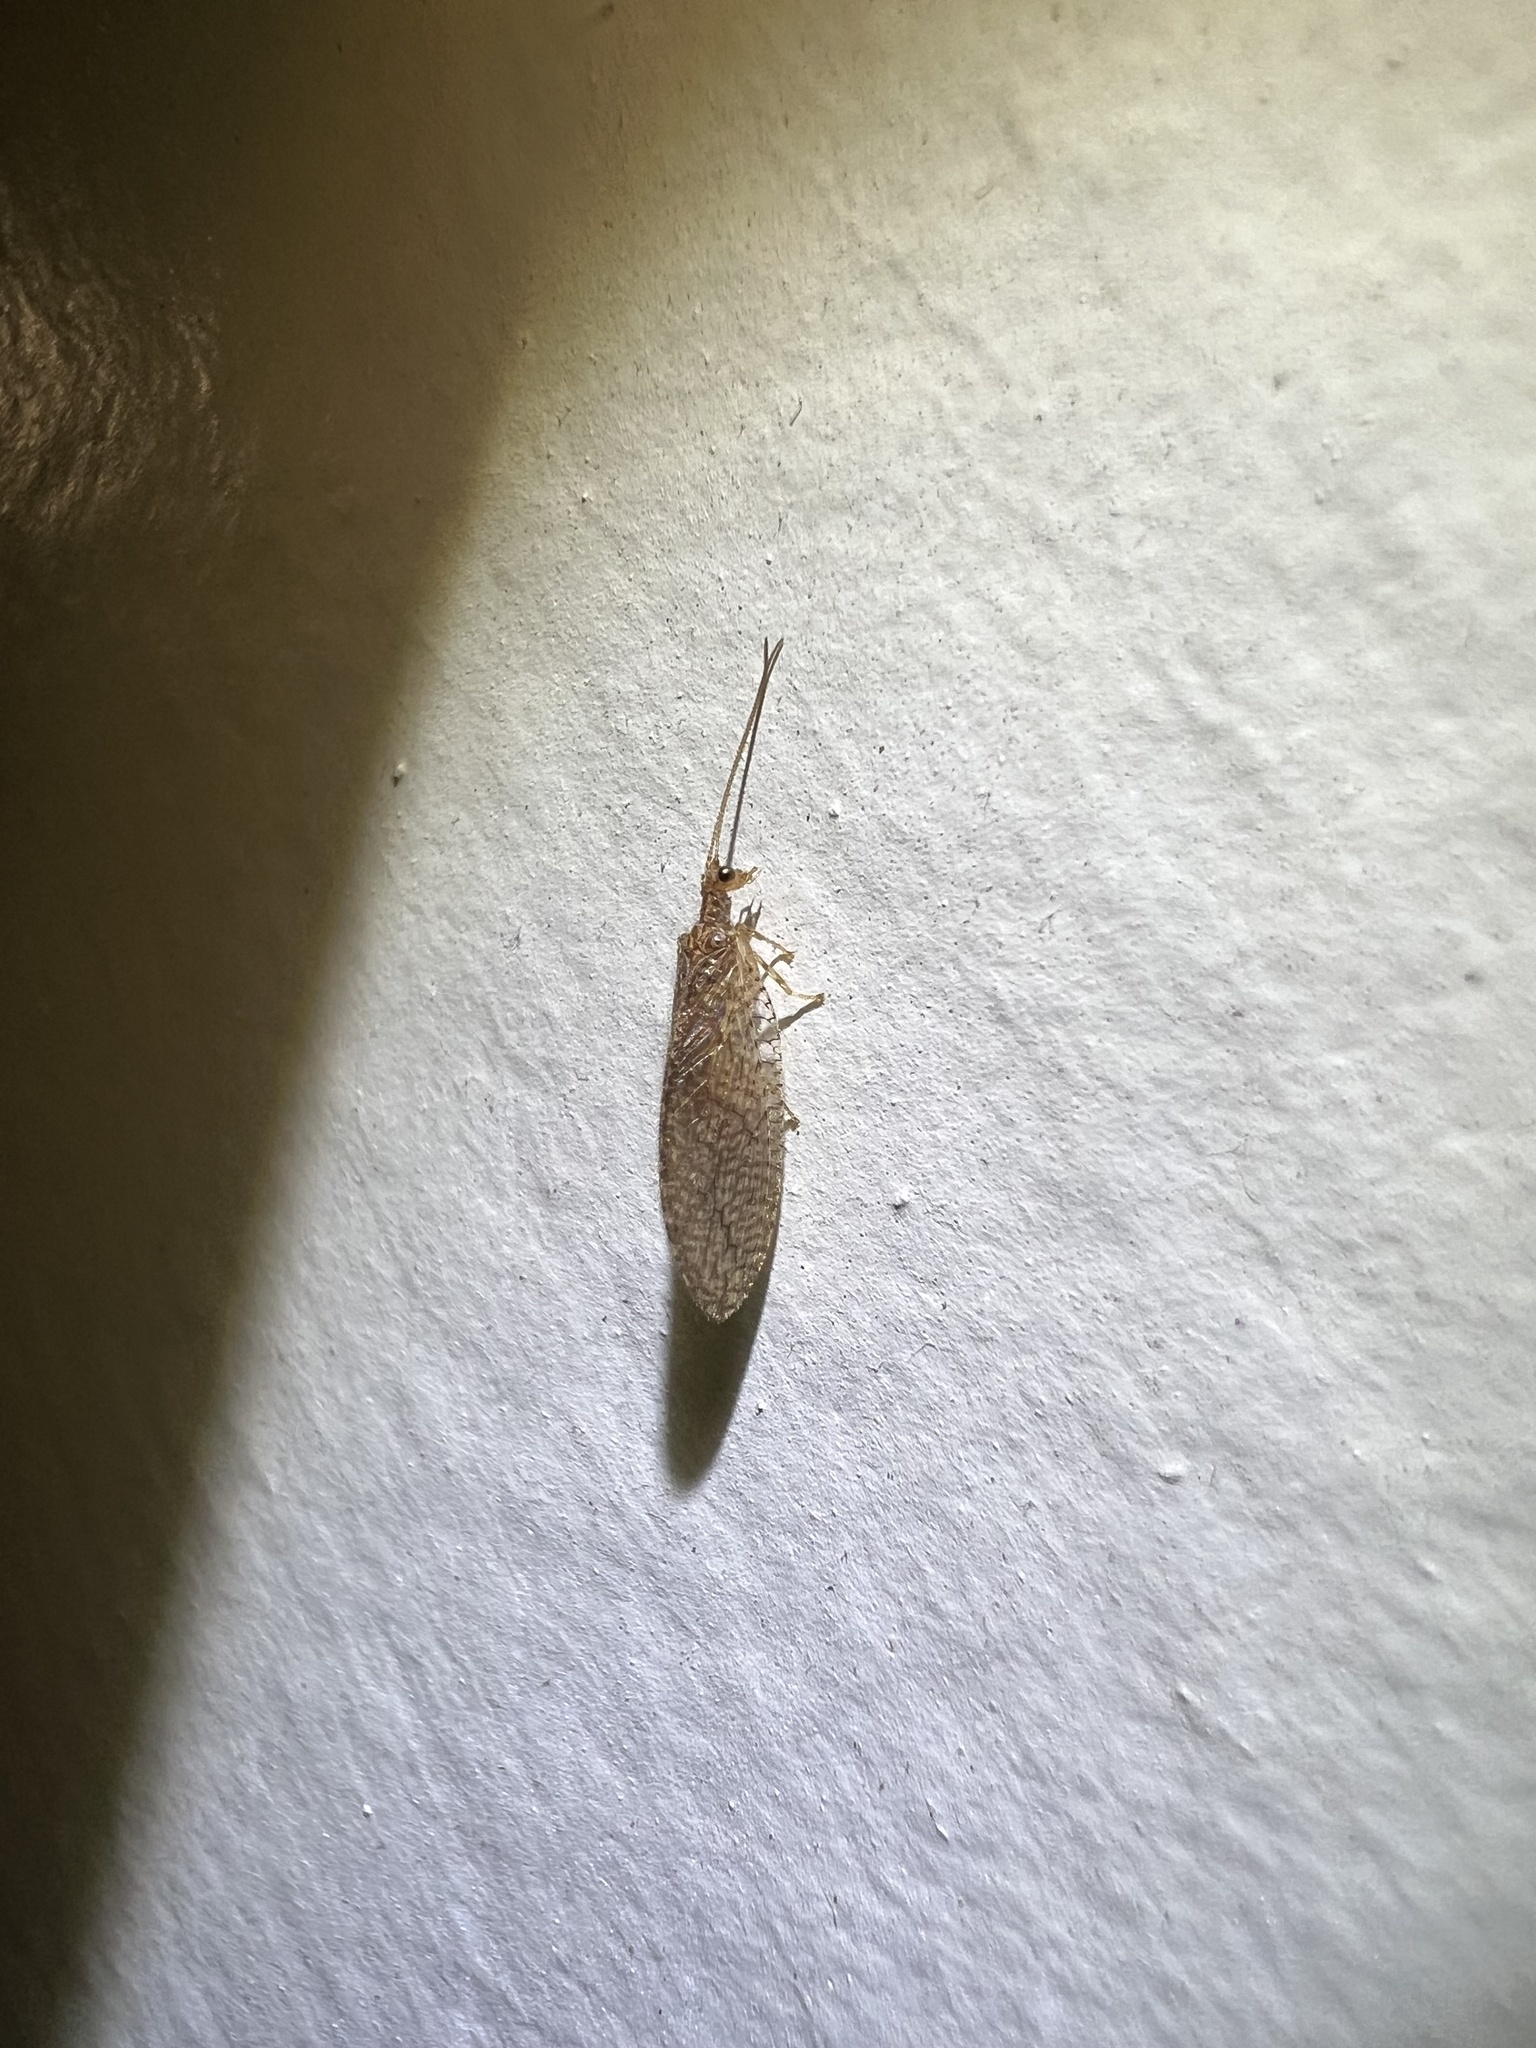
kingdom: Animalia
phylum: Arthropoda
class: Insecta
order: Neuroptera
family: Hemerobiidae
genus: Micromus
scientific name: Micromus posticus
